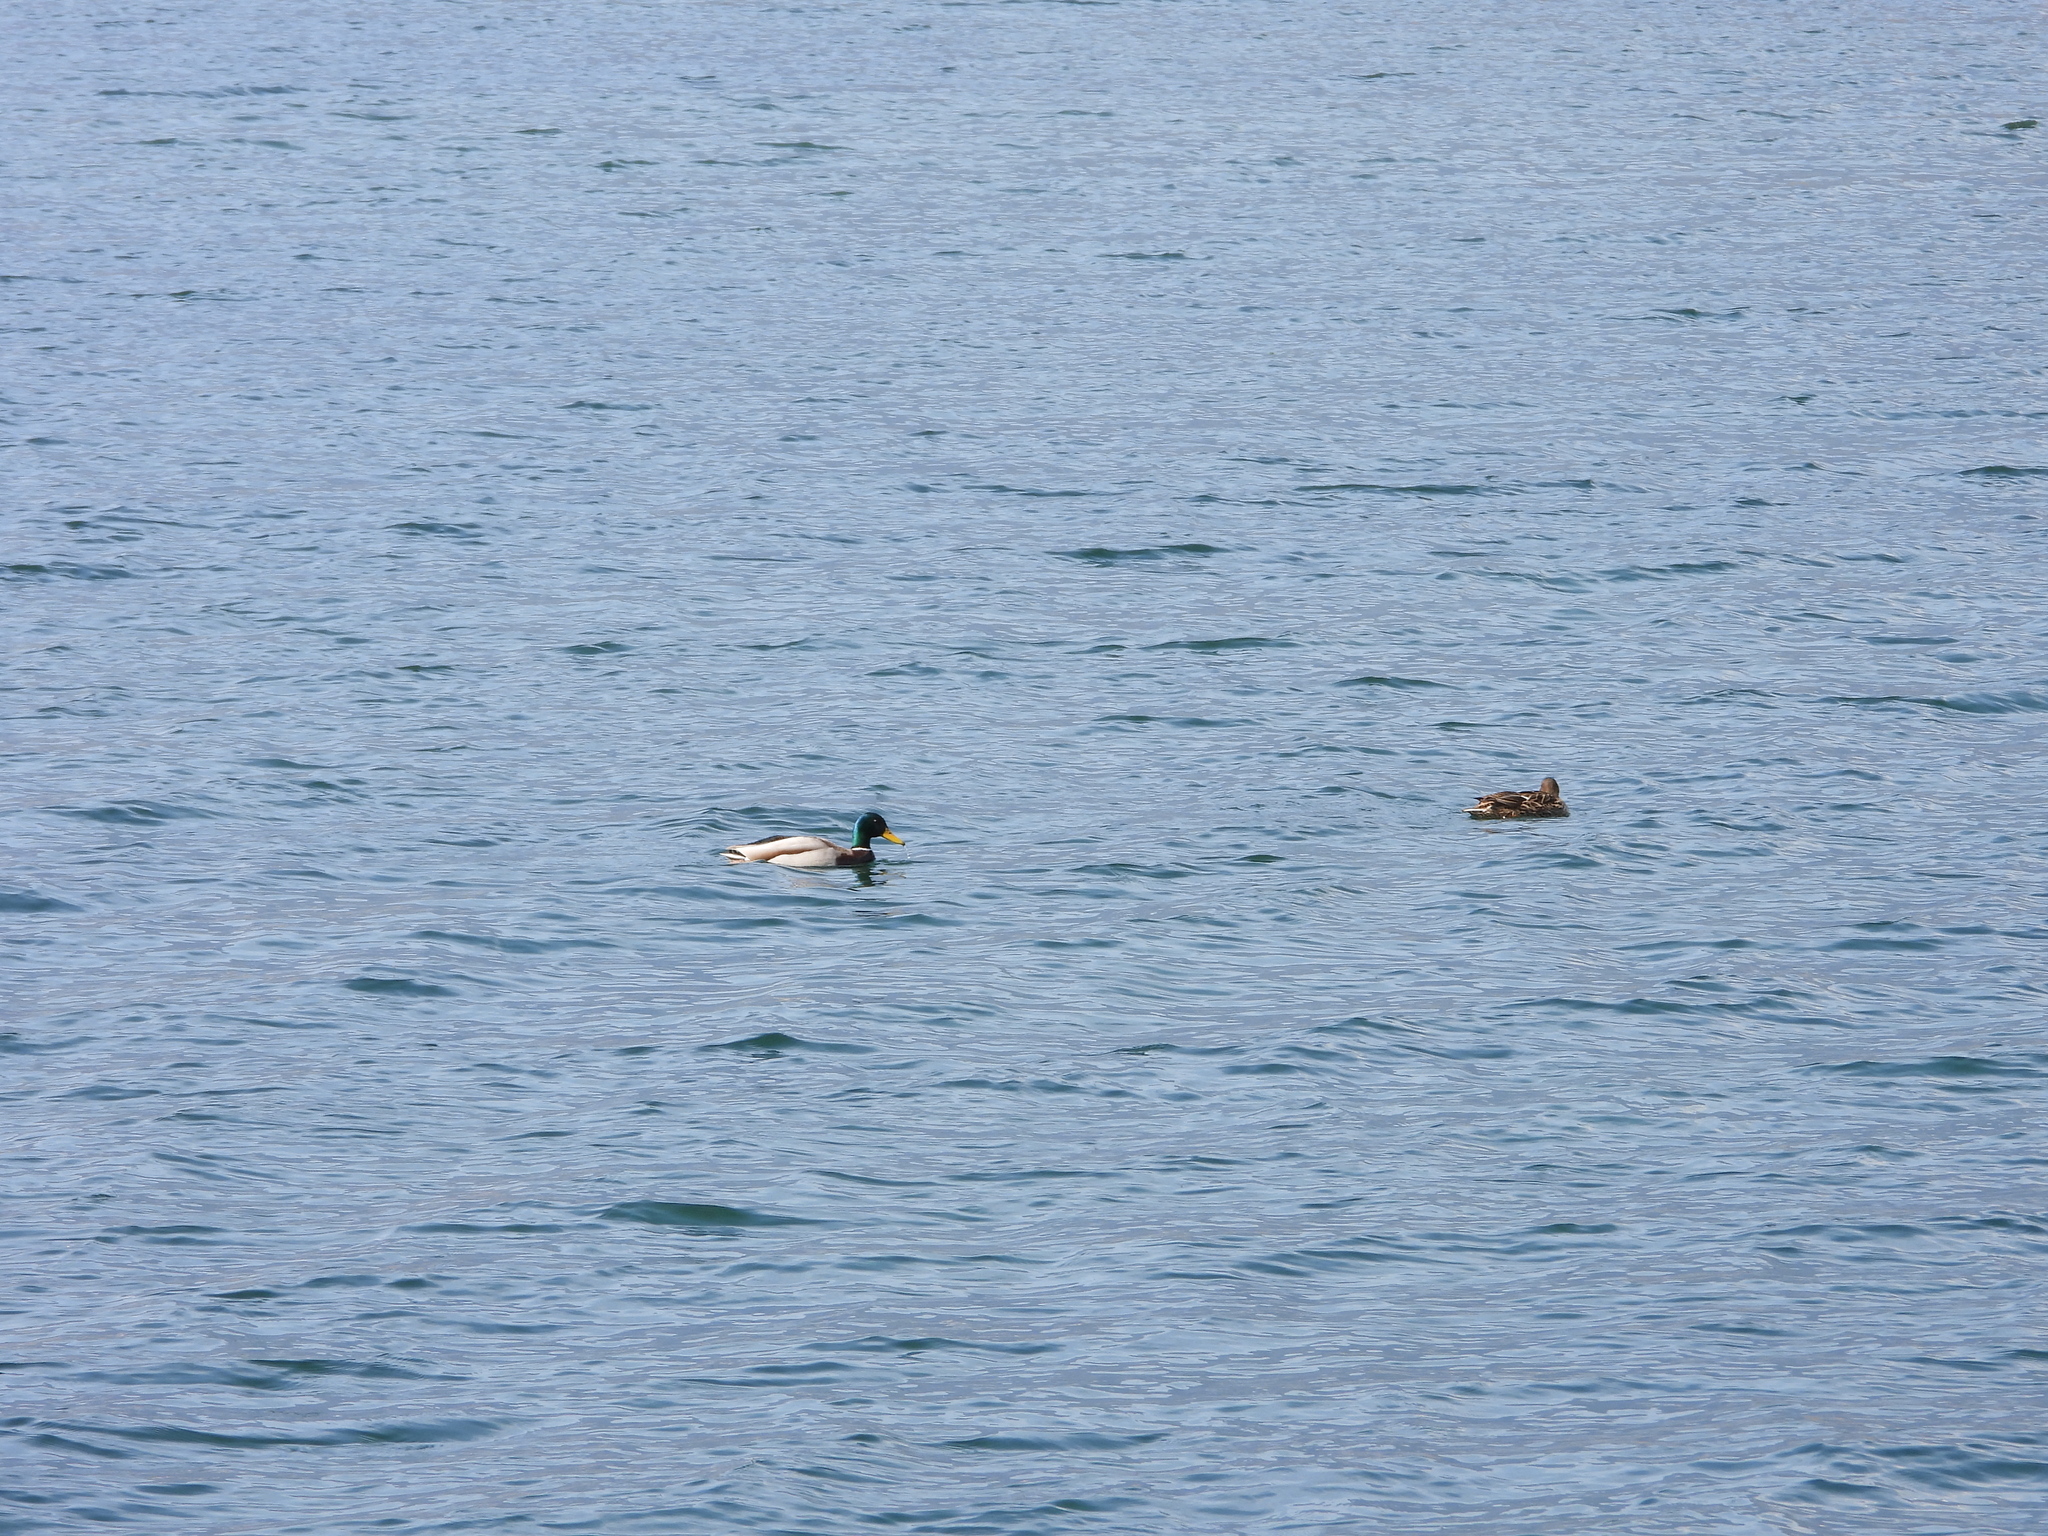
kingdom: Animalia
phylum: Chordata
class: Aves
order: Anseriformes
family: Anatidae
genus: Anas
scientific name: Anas platyrhynchos
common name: Mallard
